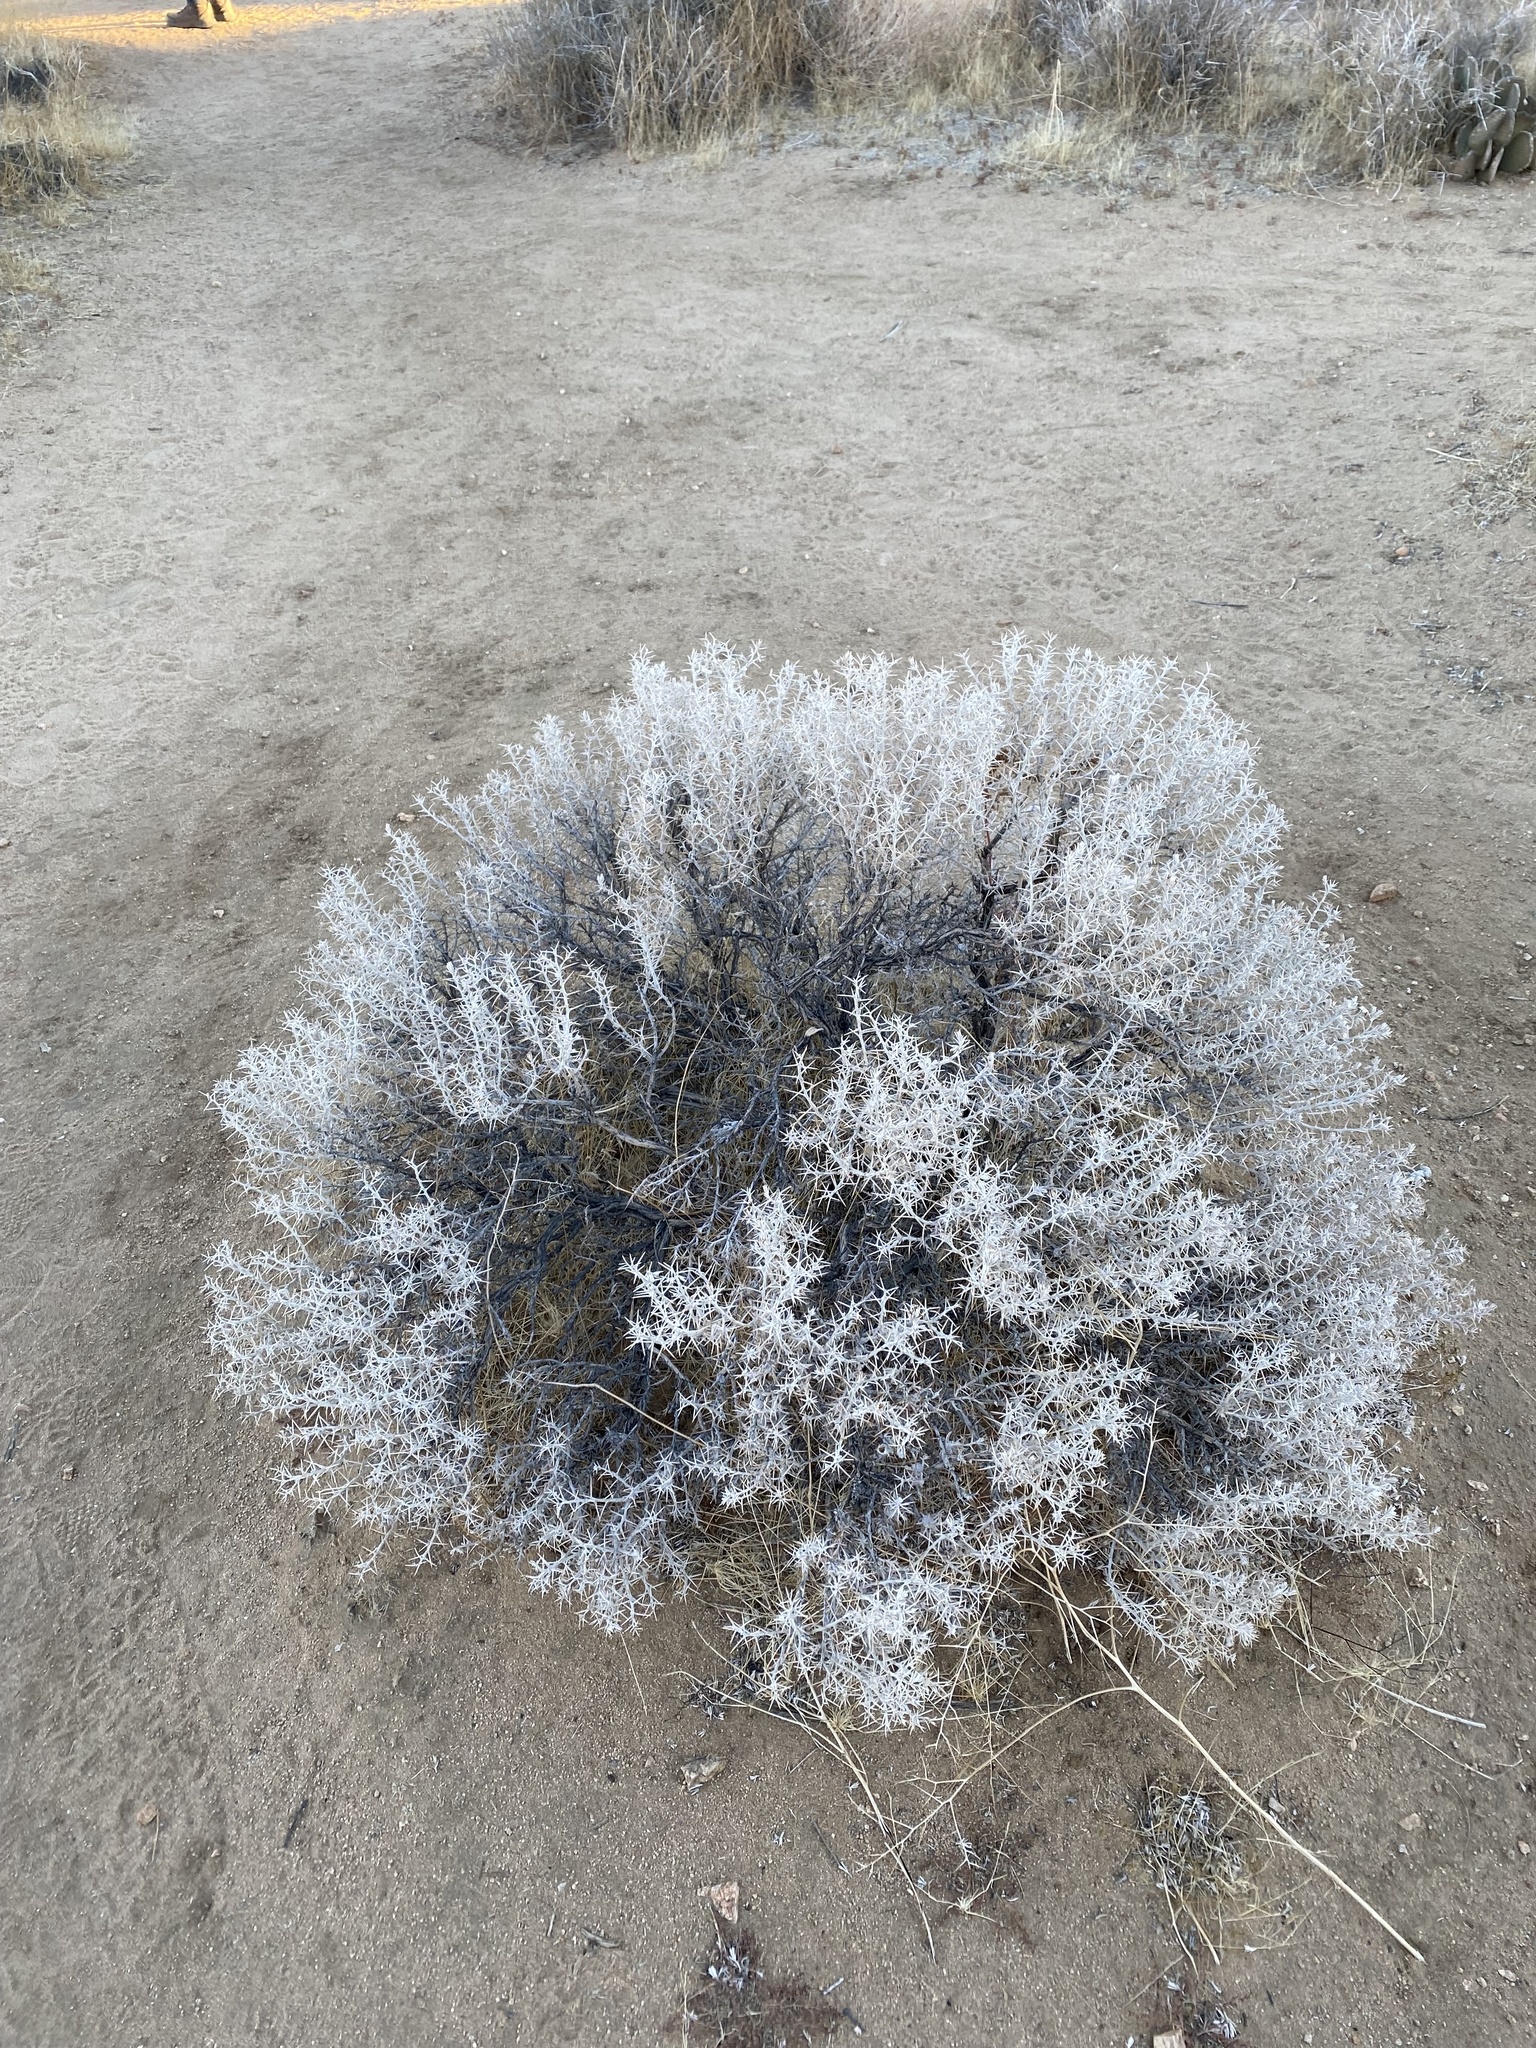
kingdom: Plantae
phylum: Tracheophyta
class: Magnoliopsida
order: Asterales
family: Asteraceae
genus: Tetradymia
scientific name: Tetradymia stenolepis
